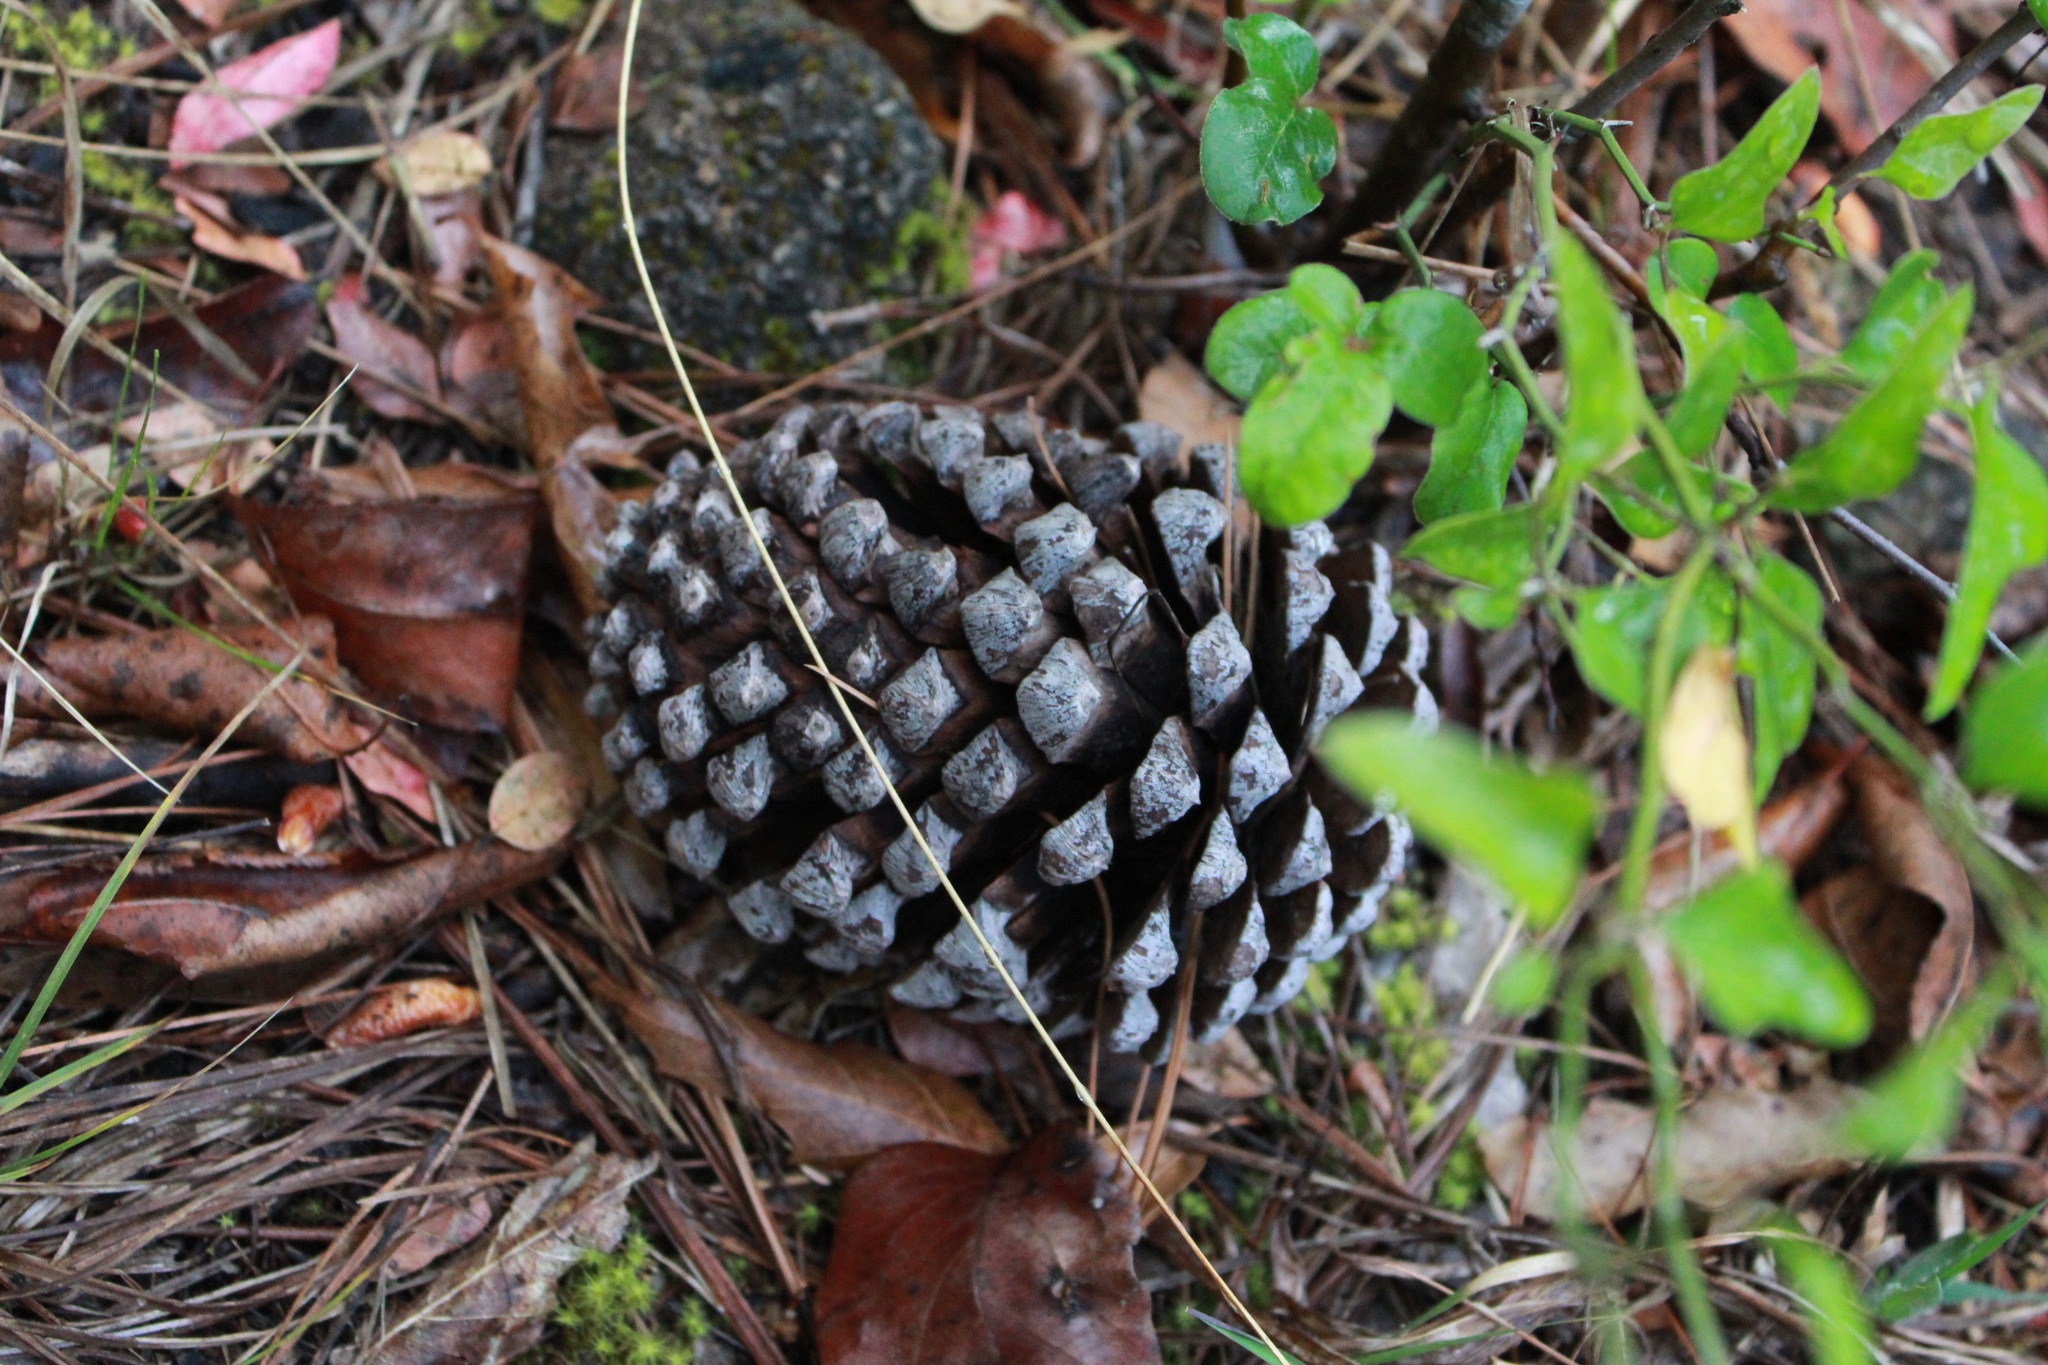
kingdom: Plantae
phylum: Tracheophyta
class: Pinopsida
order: Pinales
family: Pinaceae
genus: Pinus
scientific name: Pinus pseudostrobus
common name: False weymouth pine
